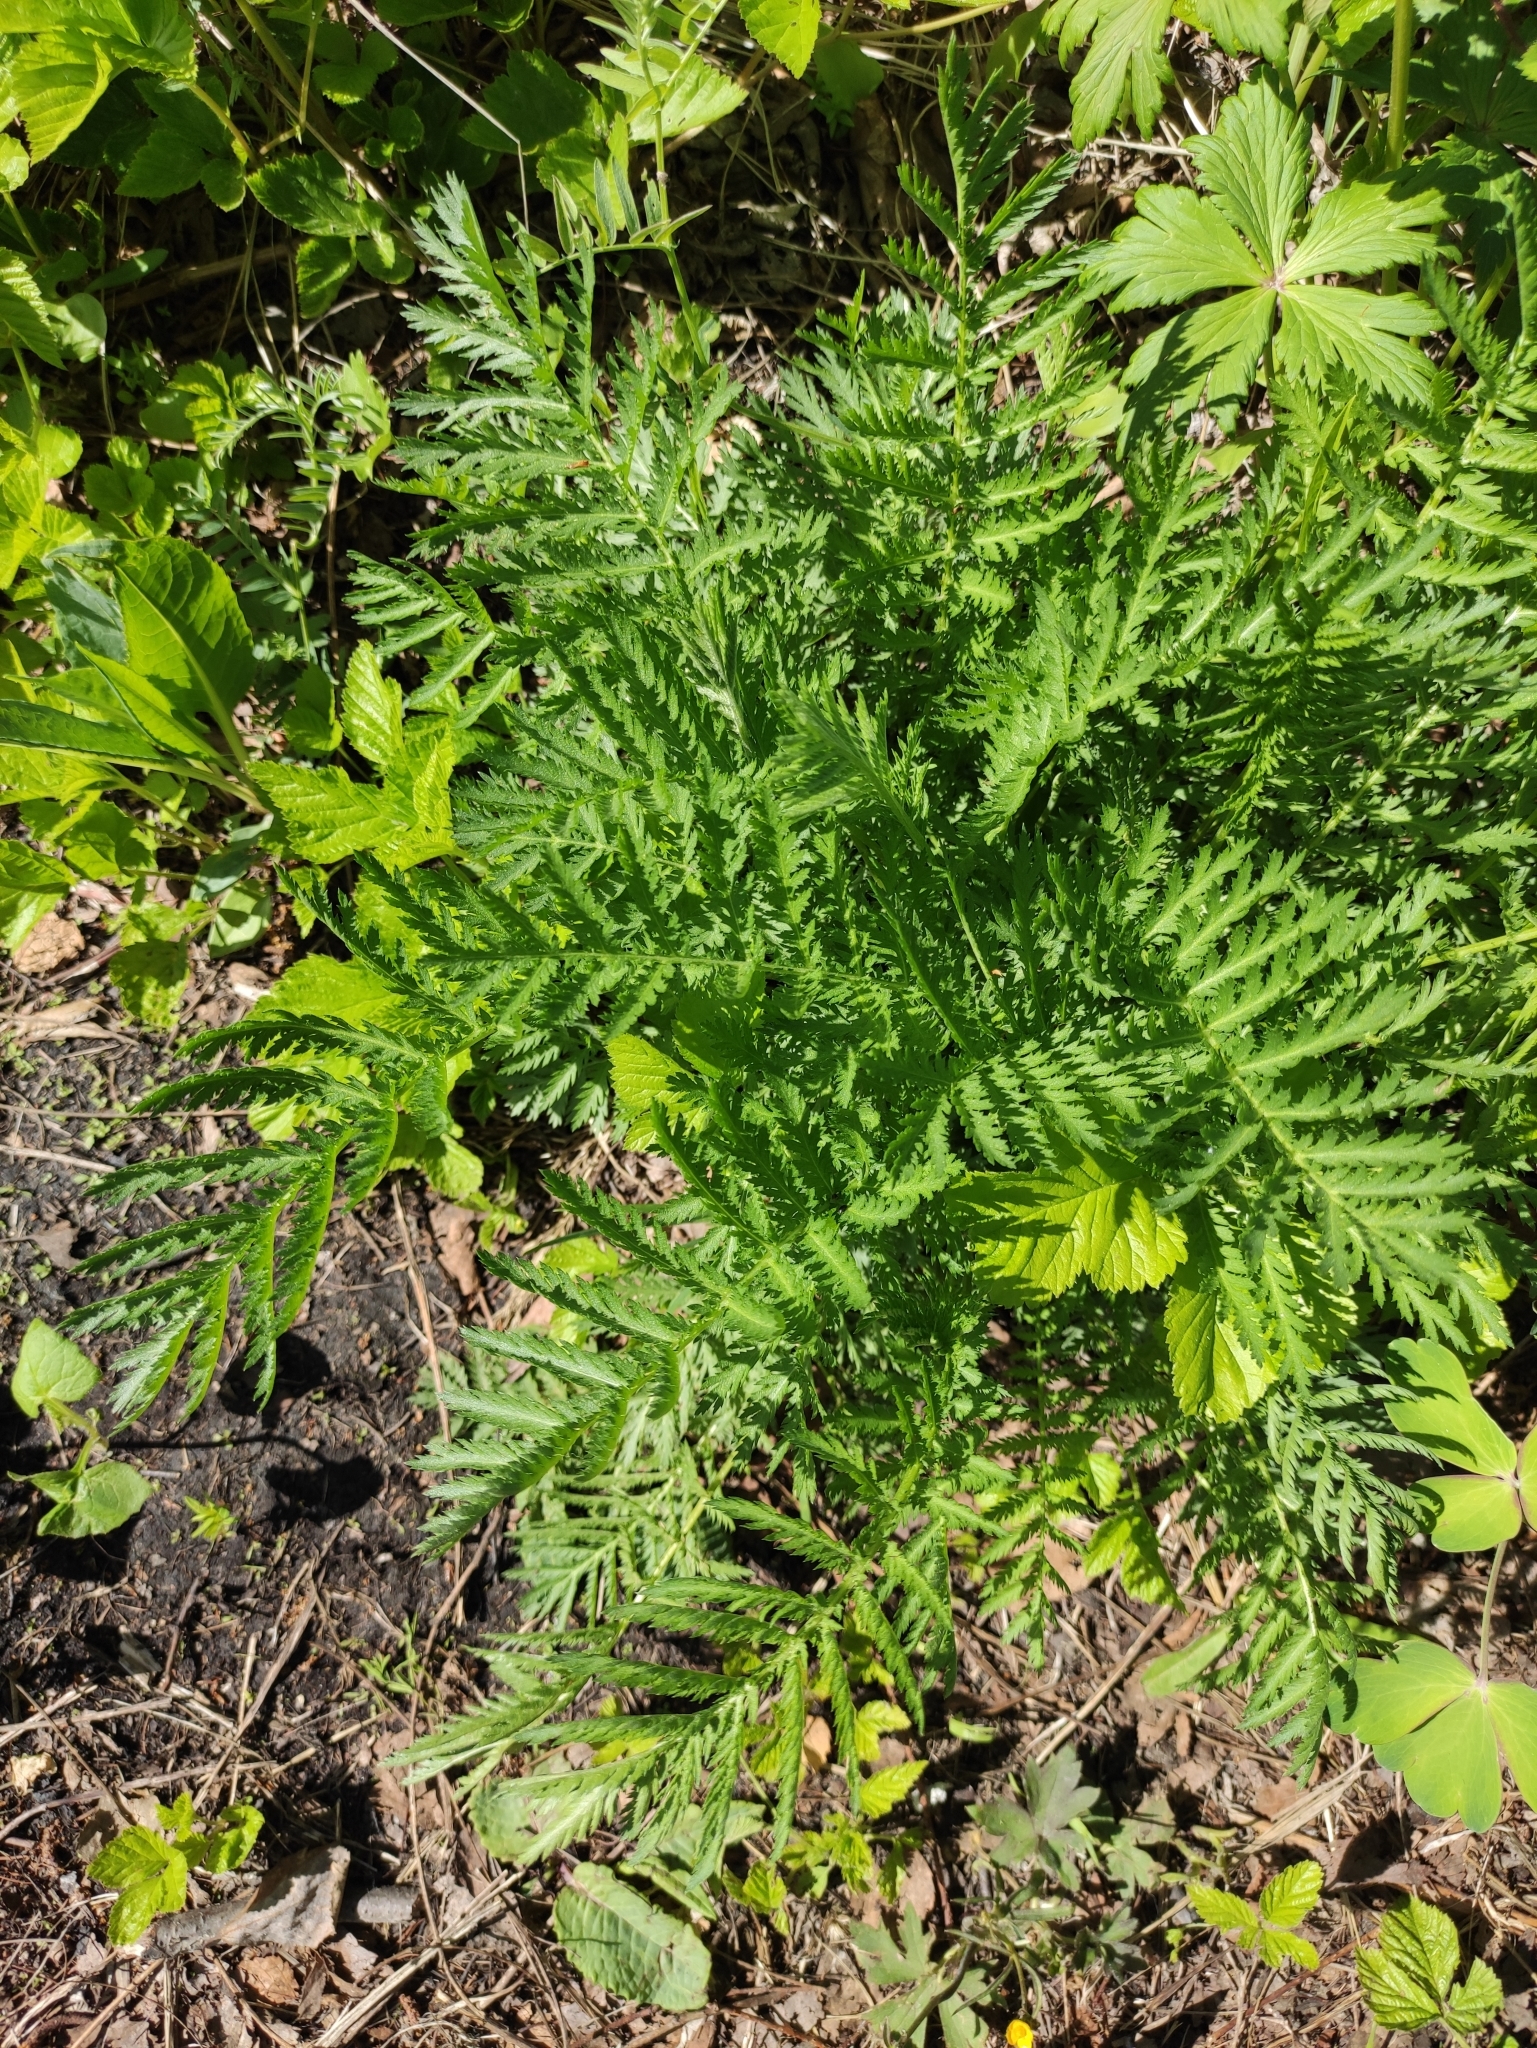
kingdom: Plantae
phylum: Tracheophyta
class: Magnoliopsida
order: Asterales
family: Asteraceae
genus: Tanacetum
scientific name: Tanacetum vulgare
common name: Common tansy
